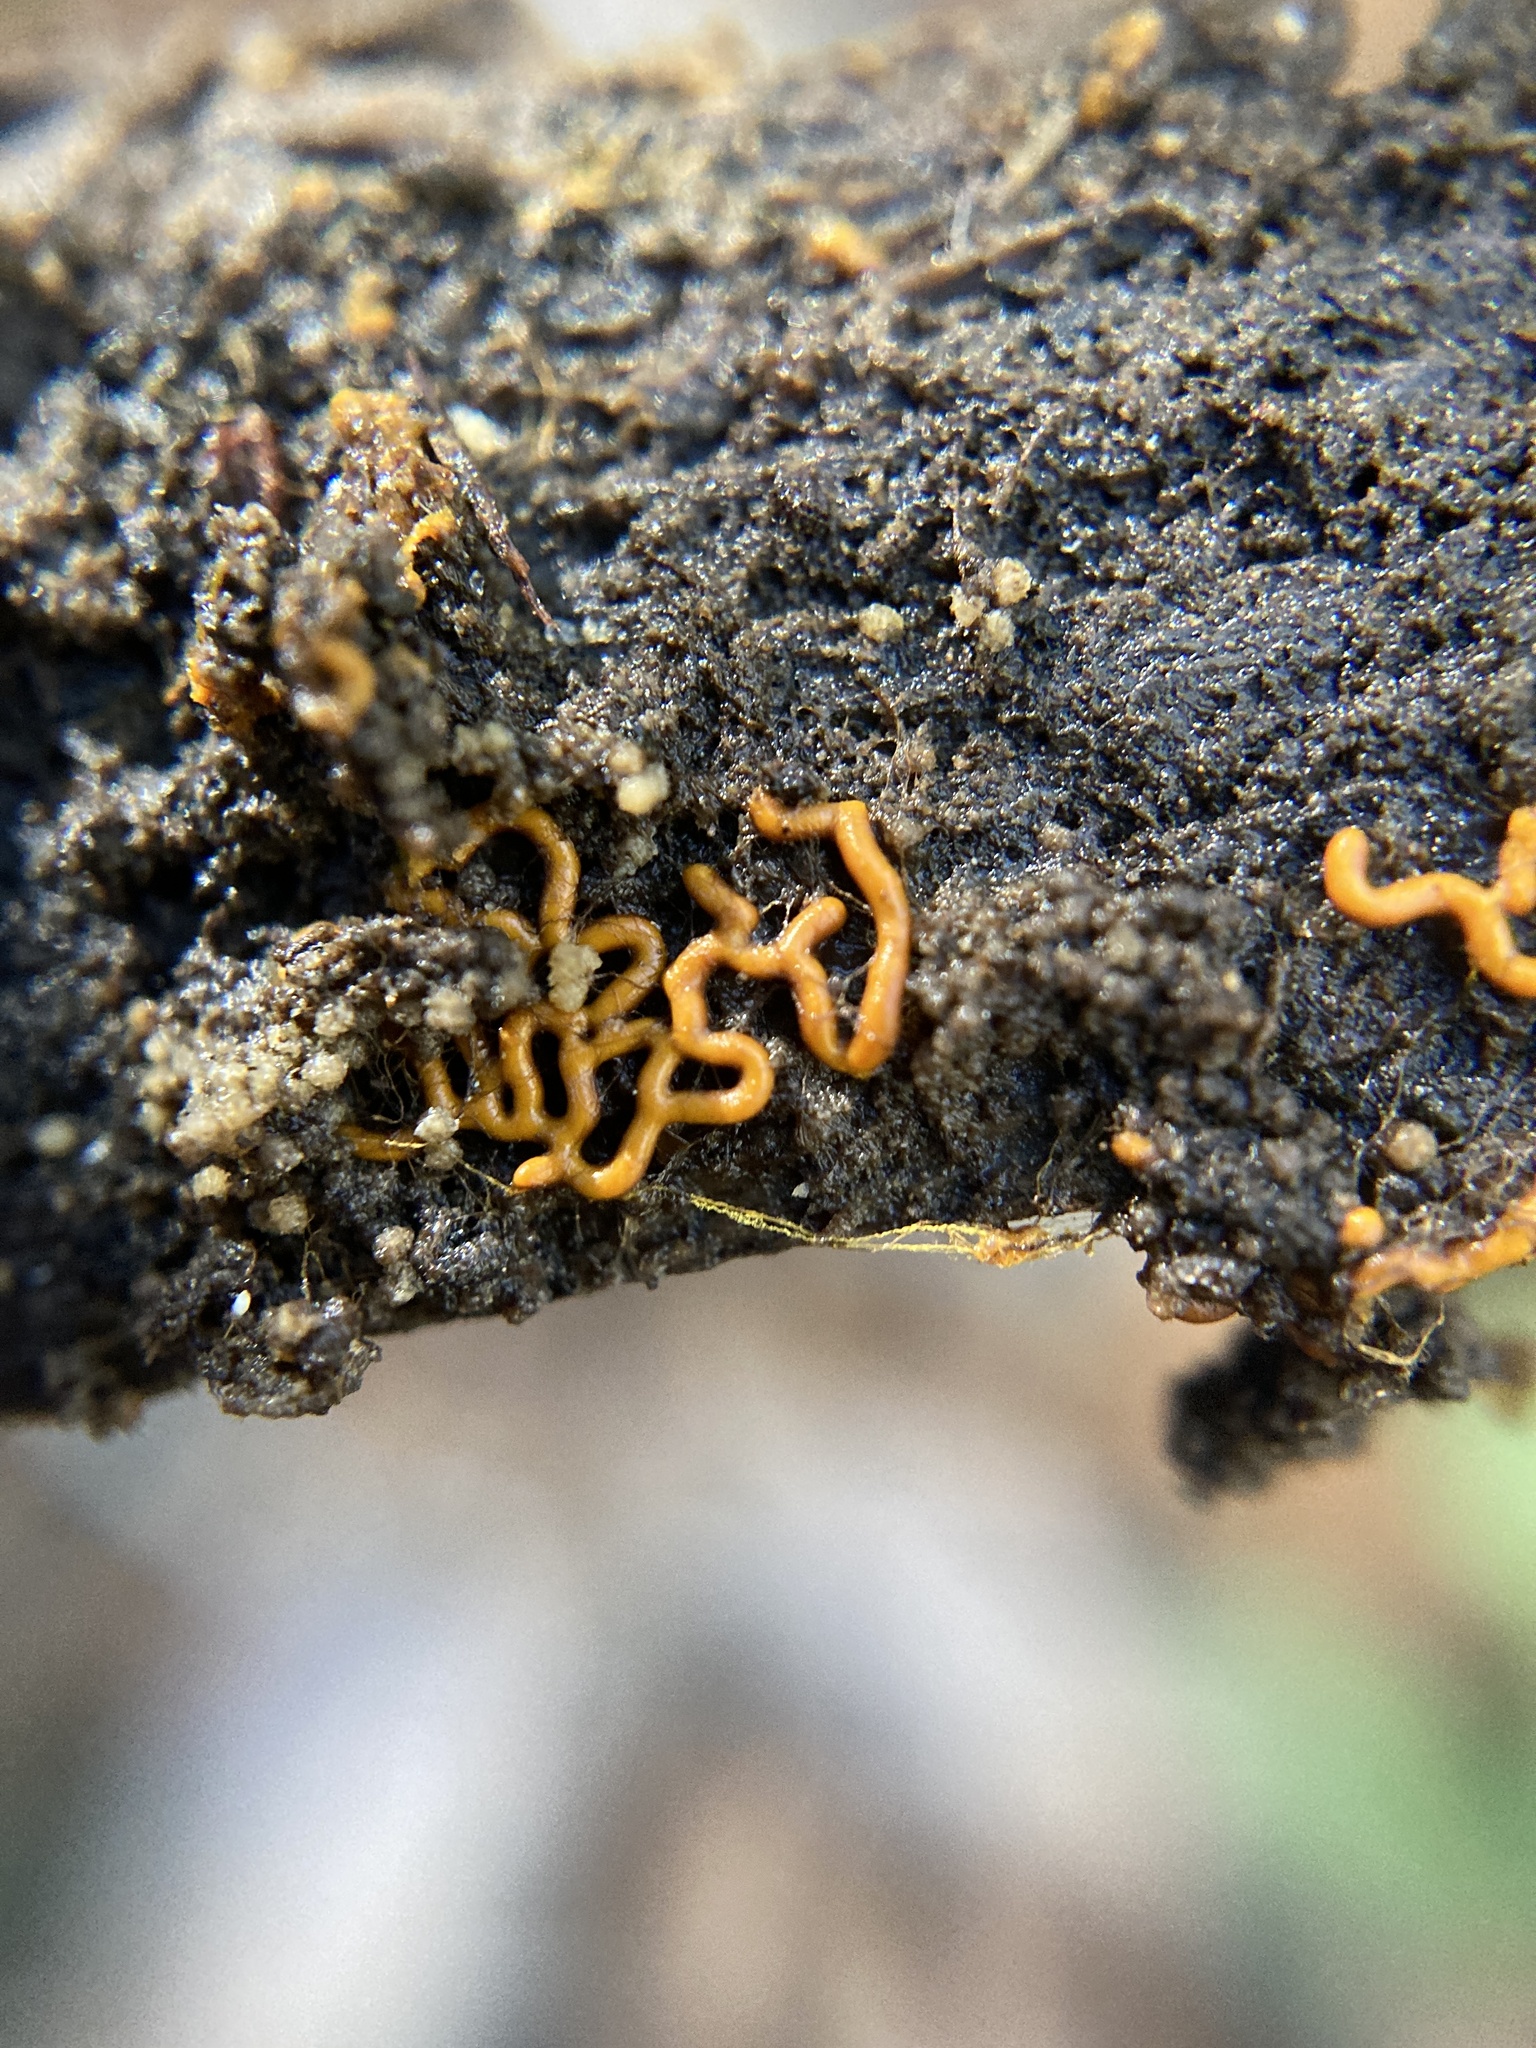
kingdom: Protozoa
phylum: Mycetozoa
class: Myxomycetes
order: Trichiales
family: Arcyriaceae
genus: Hemitrichia
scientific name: Hemitrichia serpula
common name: Pretzel slime mold
